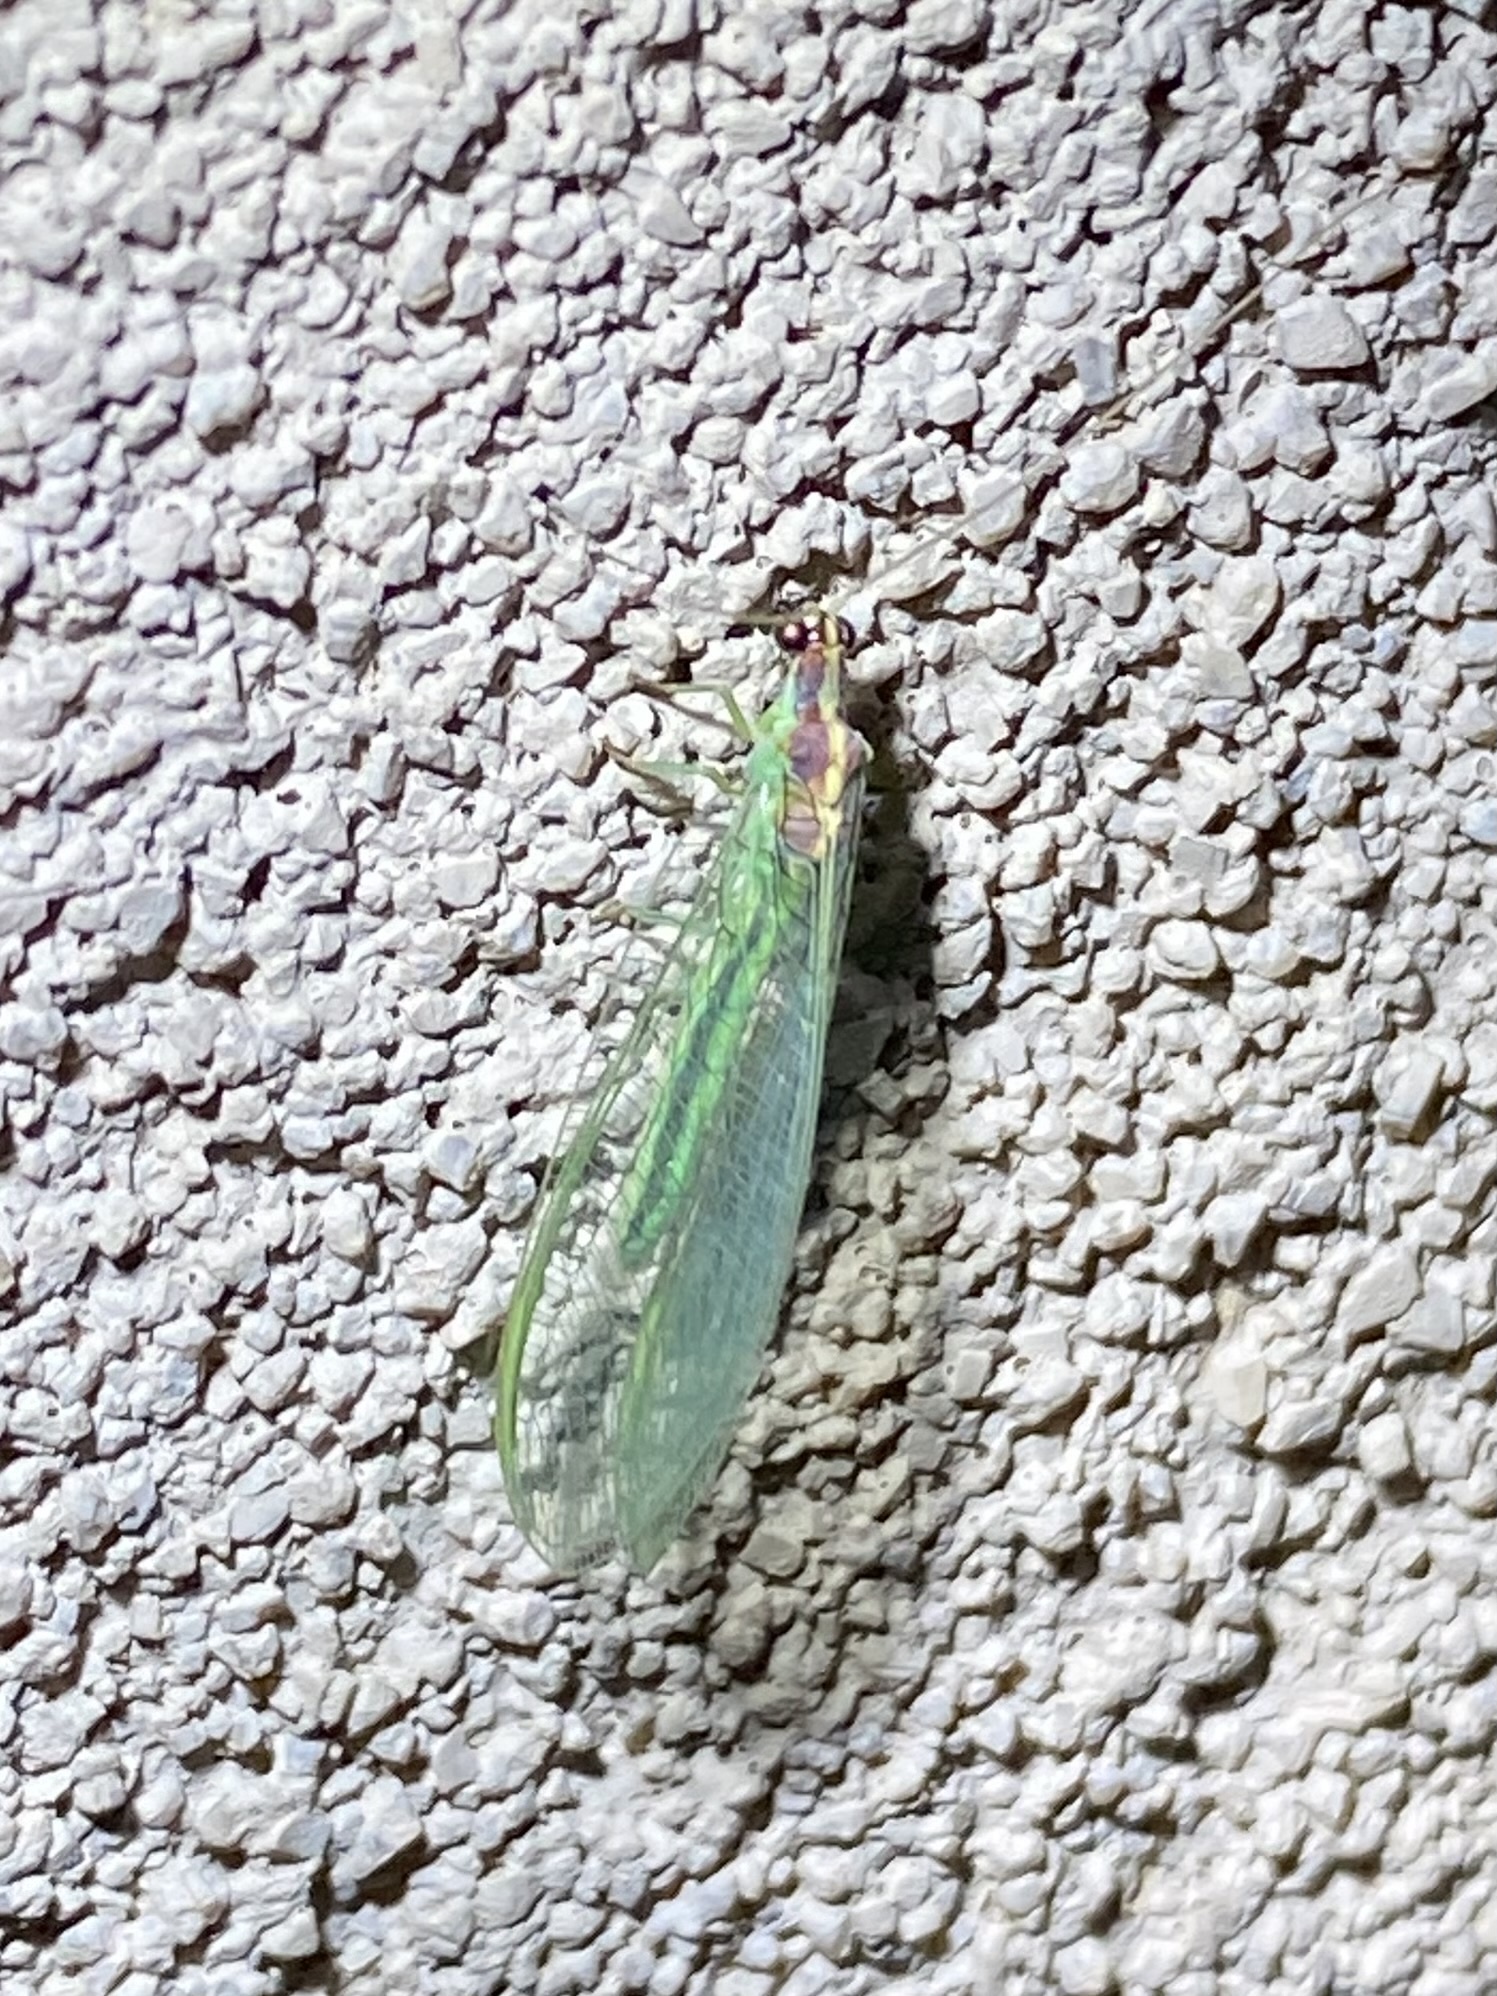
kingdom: Animalia
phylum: Arthropoda
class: Insecta
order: Neuroptera
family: Chrysopidae
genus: Meleoma
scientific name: Meleoma schwarzi
